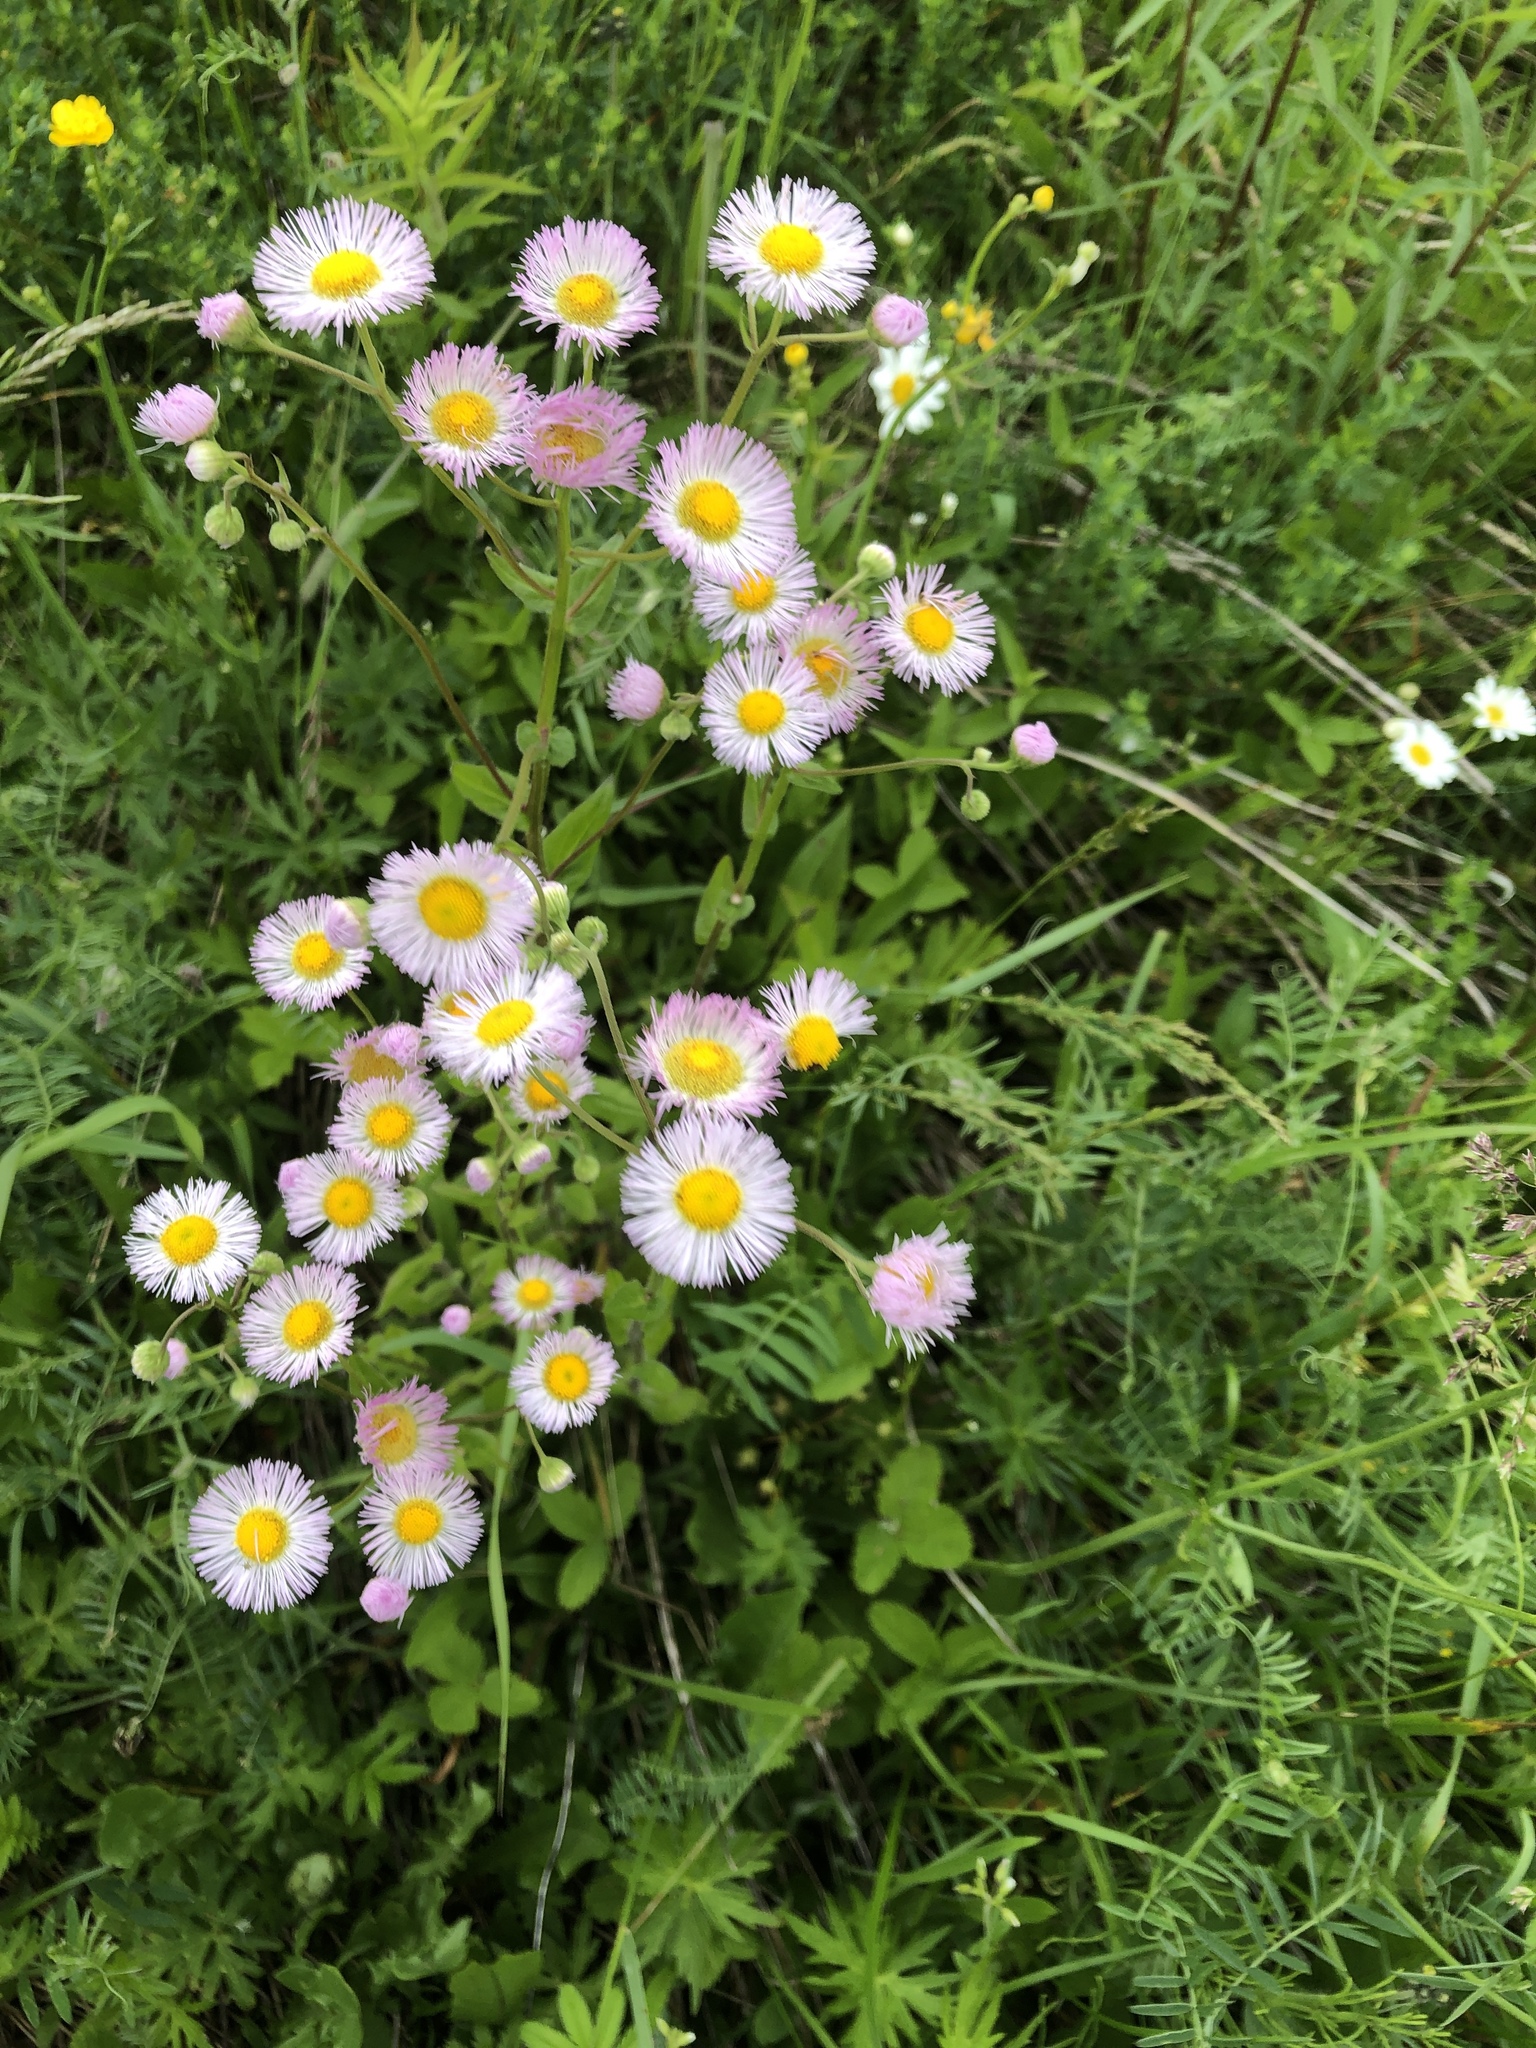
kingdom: Plantae
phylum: Tracheophyta
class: Magnoliopsida
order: Asterales
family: Asteraceae
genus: Erigeron
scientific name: Erigeron philadelphicus
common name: Robin's-plantain
